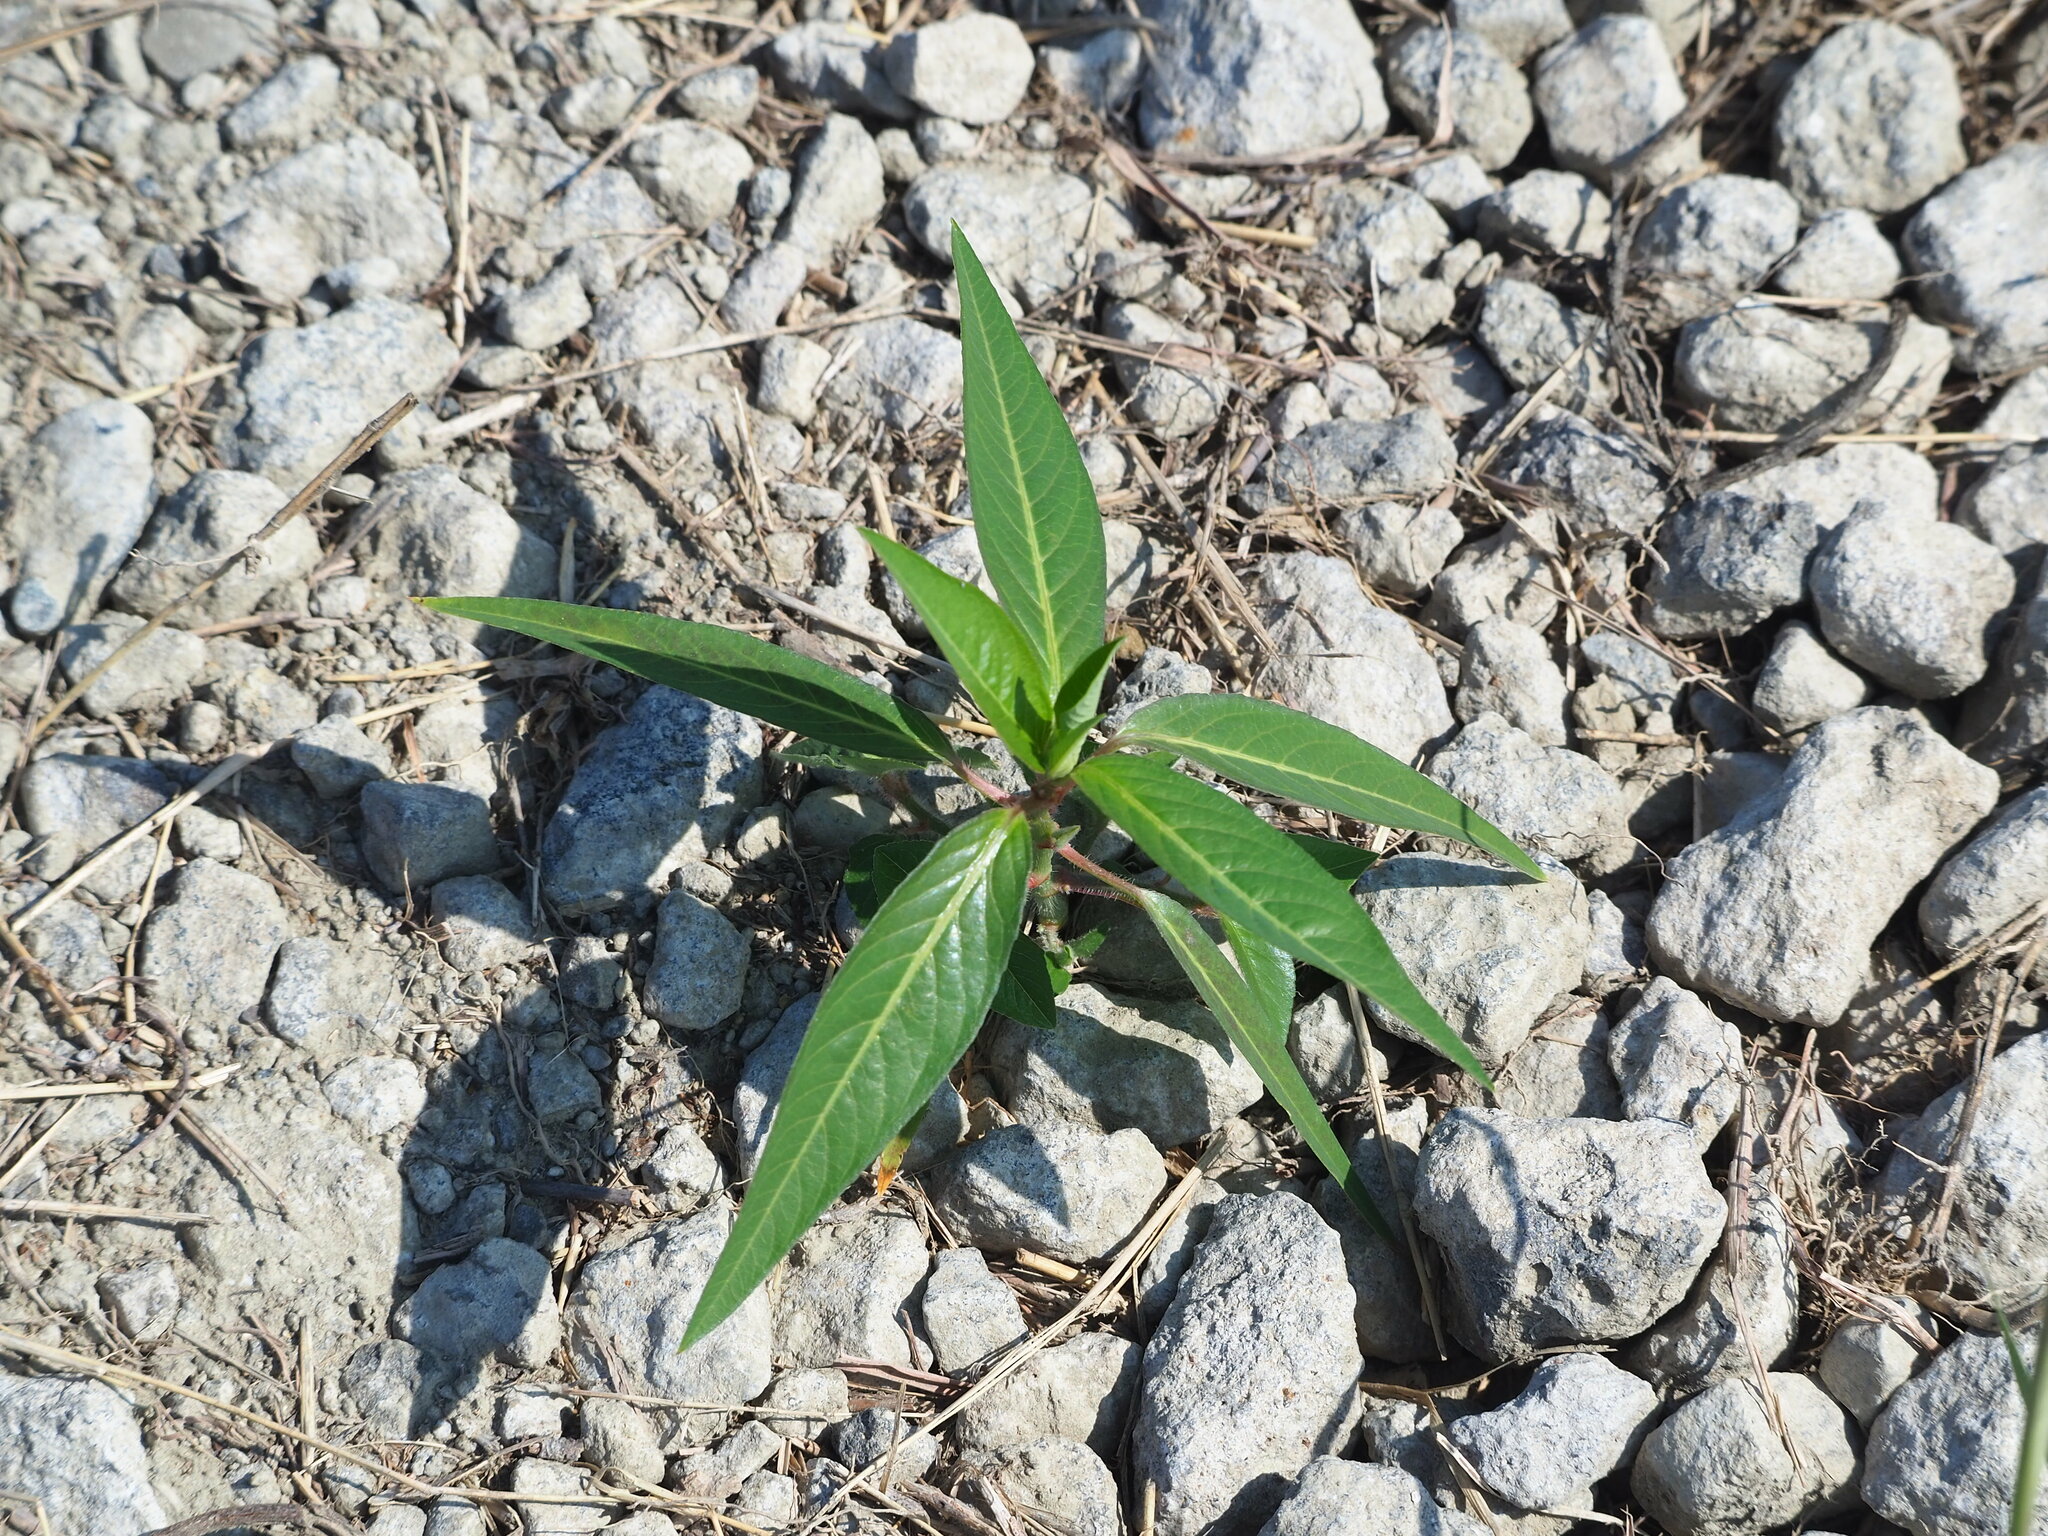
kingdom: Plantae
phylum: Tracheophyta
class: Magnoliopsida
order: Malpighiales
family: Euphorbiaceae
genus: Euphorbia
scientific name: Euphorbia heterophylla
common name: Mexican fireplant
